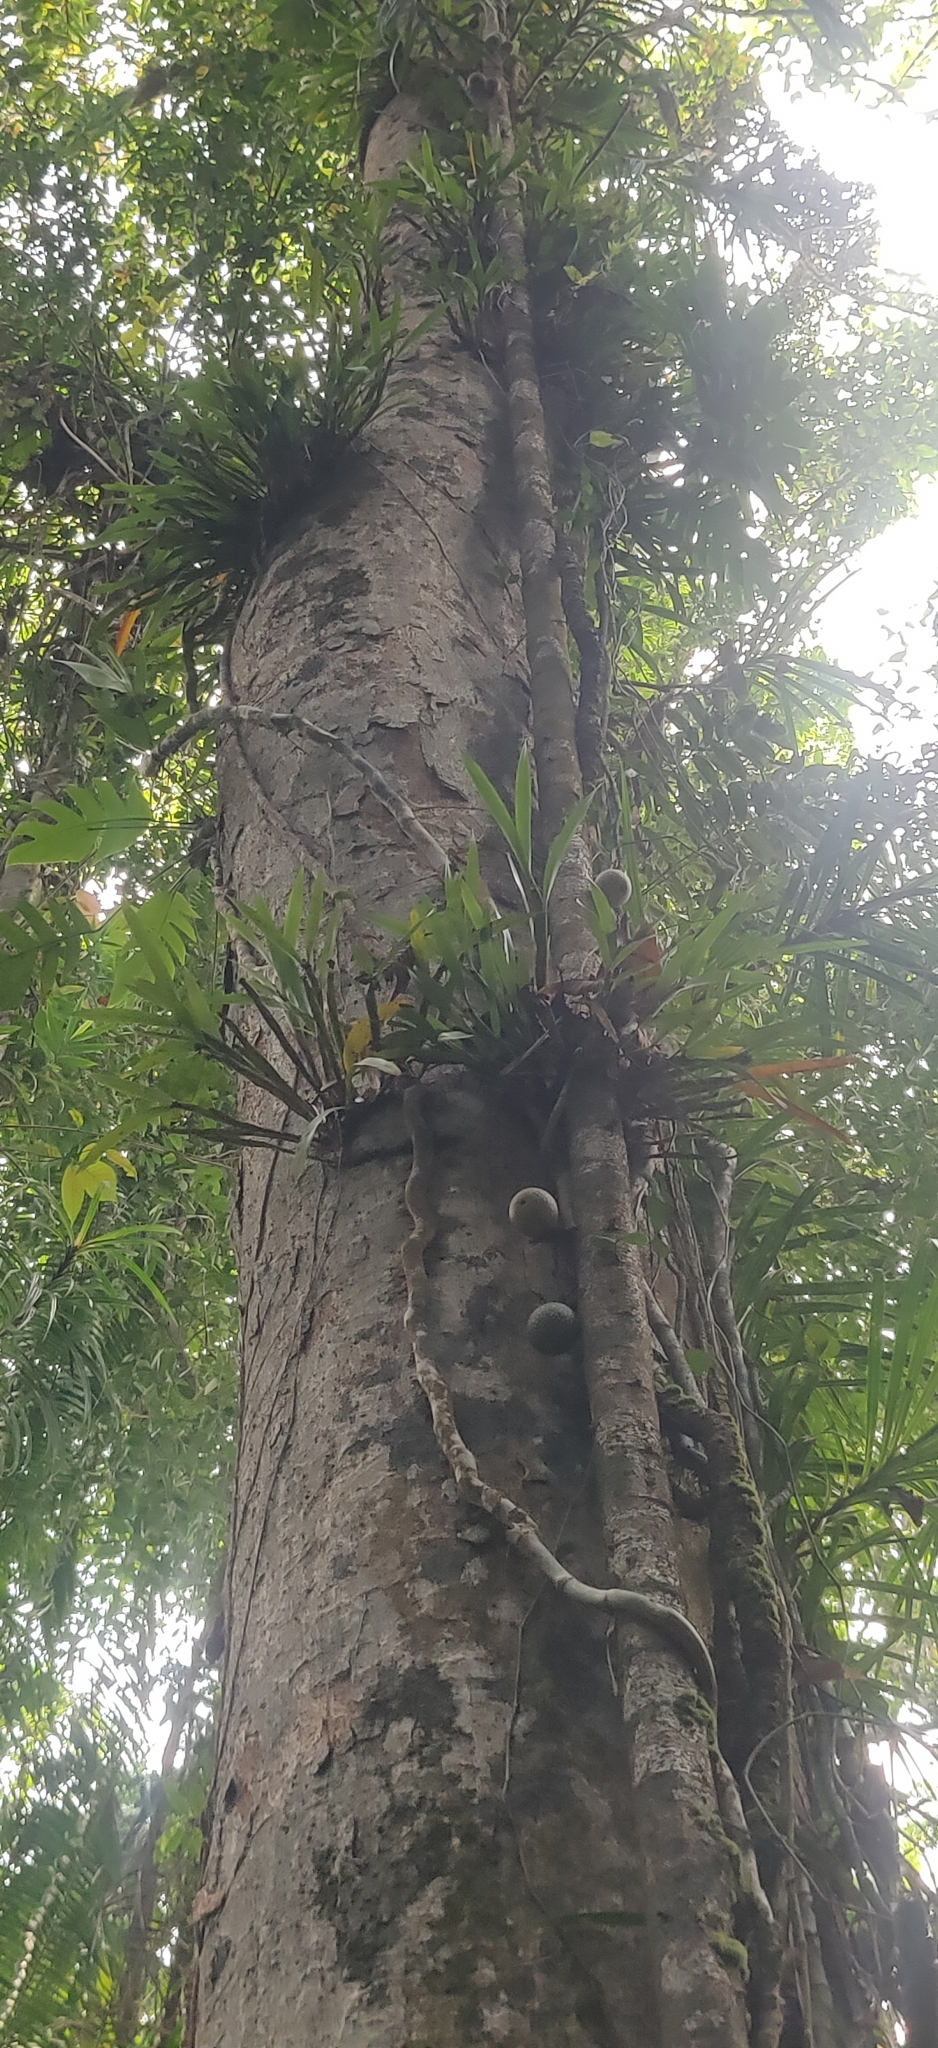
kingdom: Plantae
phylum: Tracheophyta
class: Magnoliopsida
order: Rosales
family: Moraceae
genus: Ficus
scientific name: Ficus punctata
